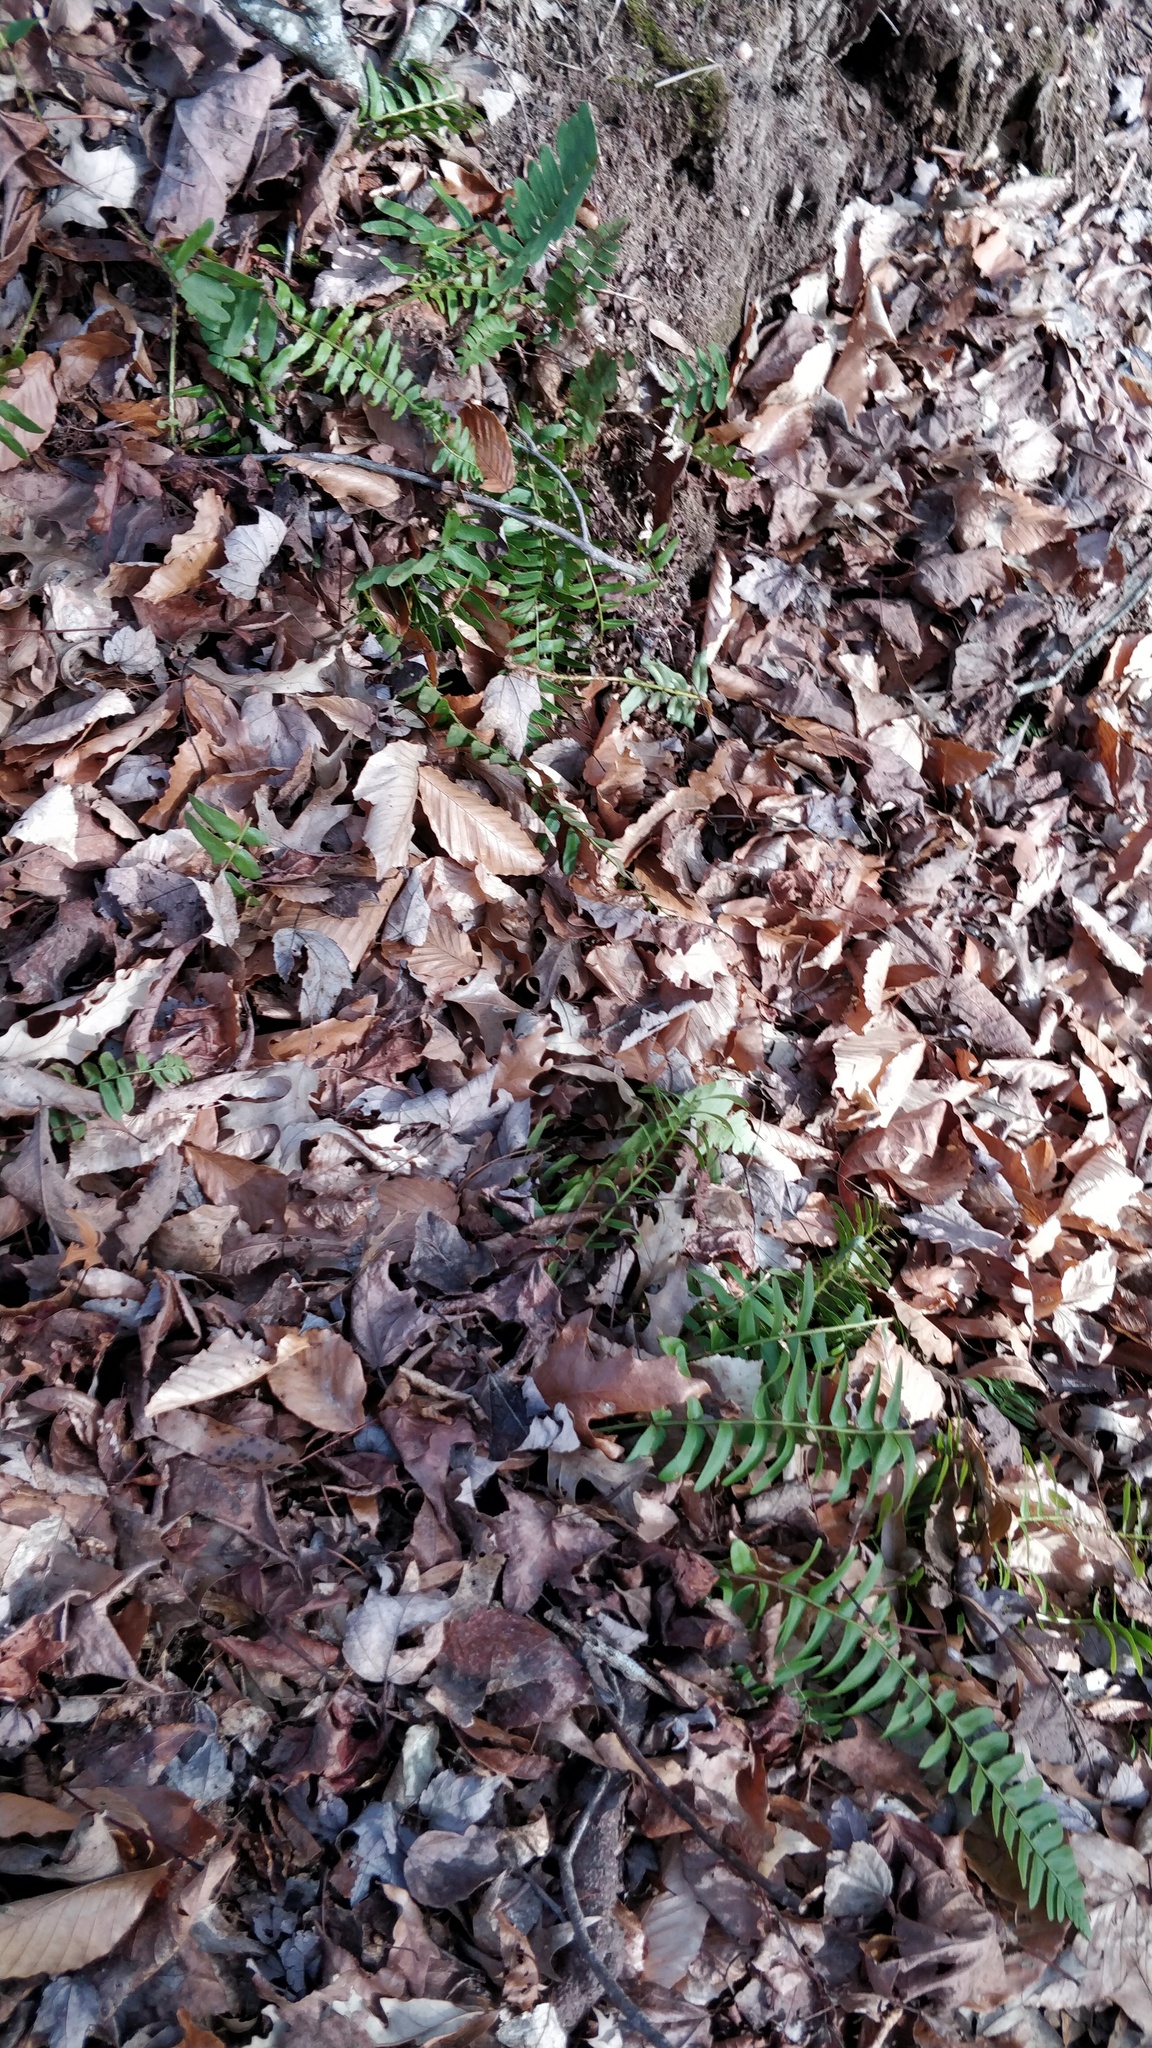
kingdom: Plantae
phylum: Tracheophyta
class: Polypodiopsida
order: Polypodiales
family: Dryopteridaceae
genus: Polystichum
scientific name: Polystichum acrostichoides
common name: Christmas fern
